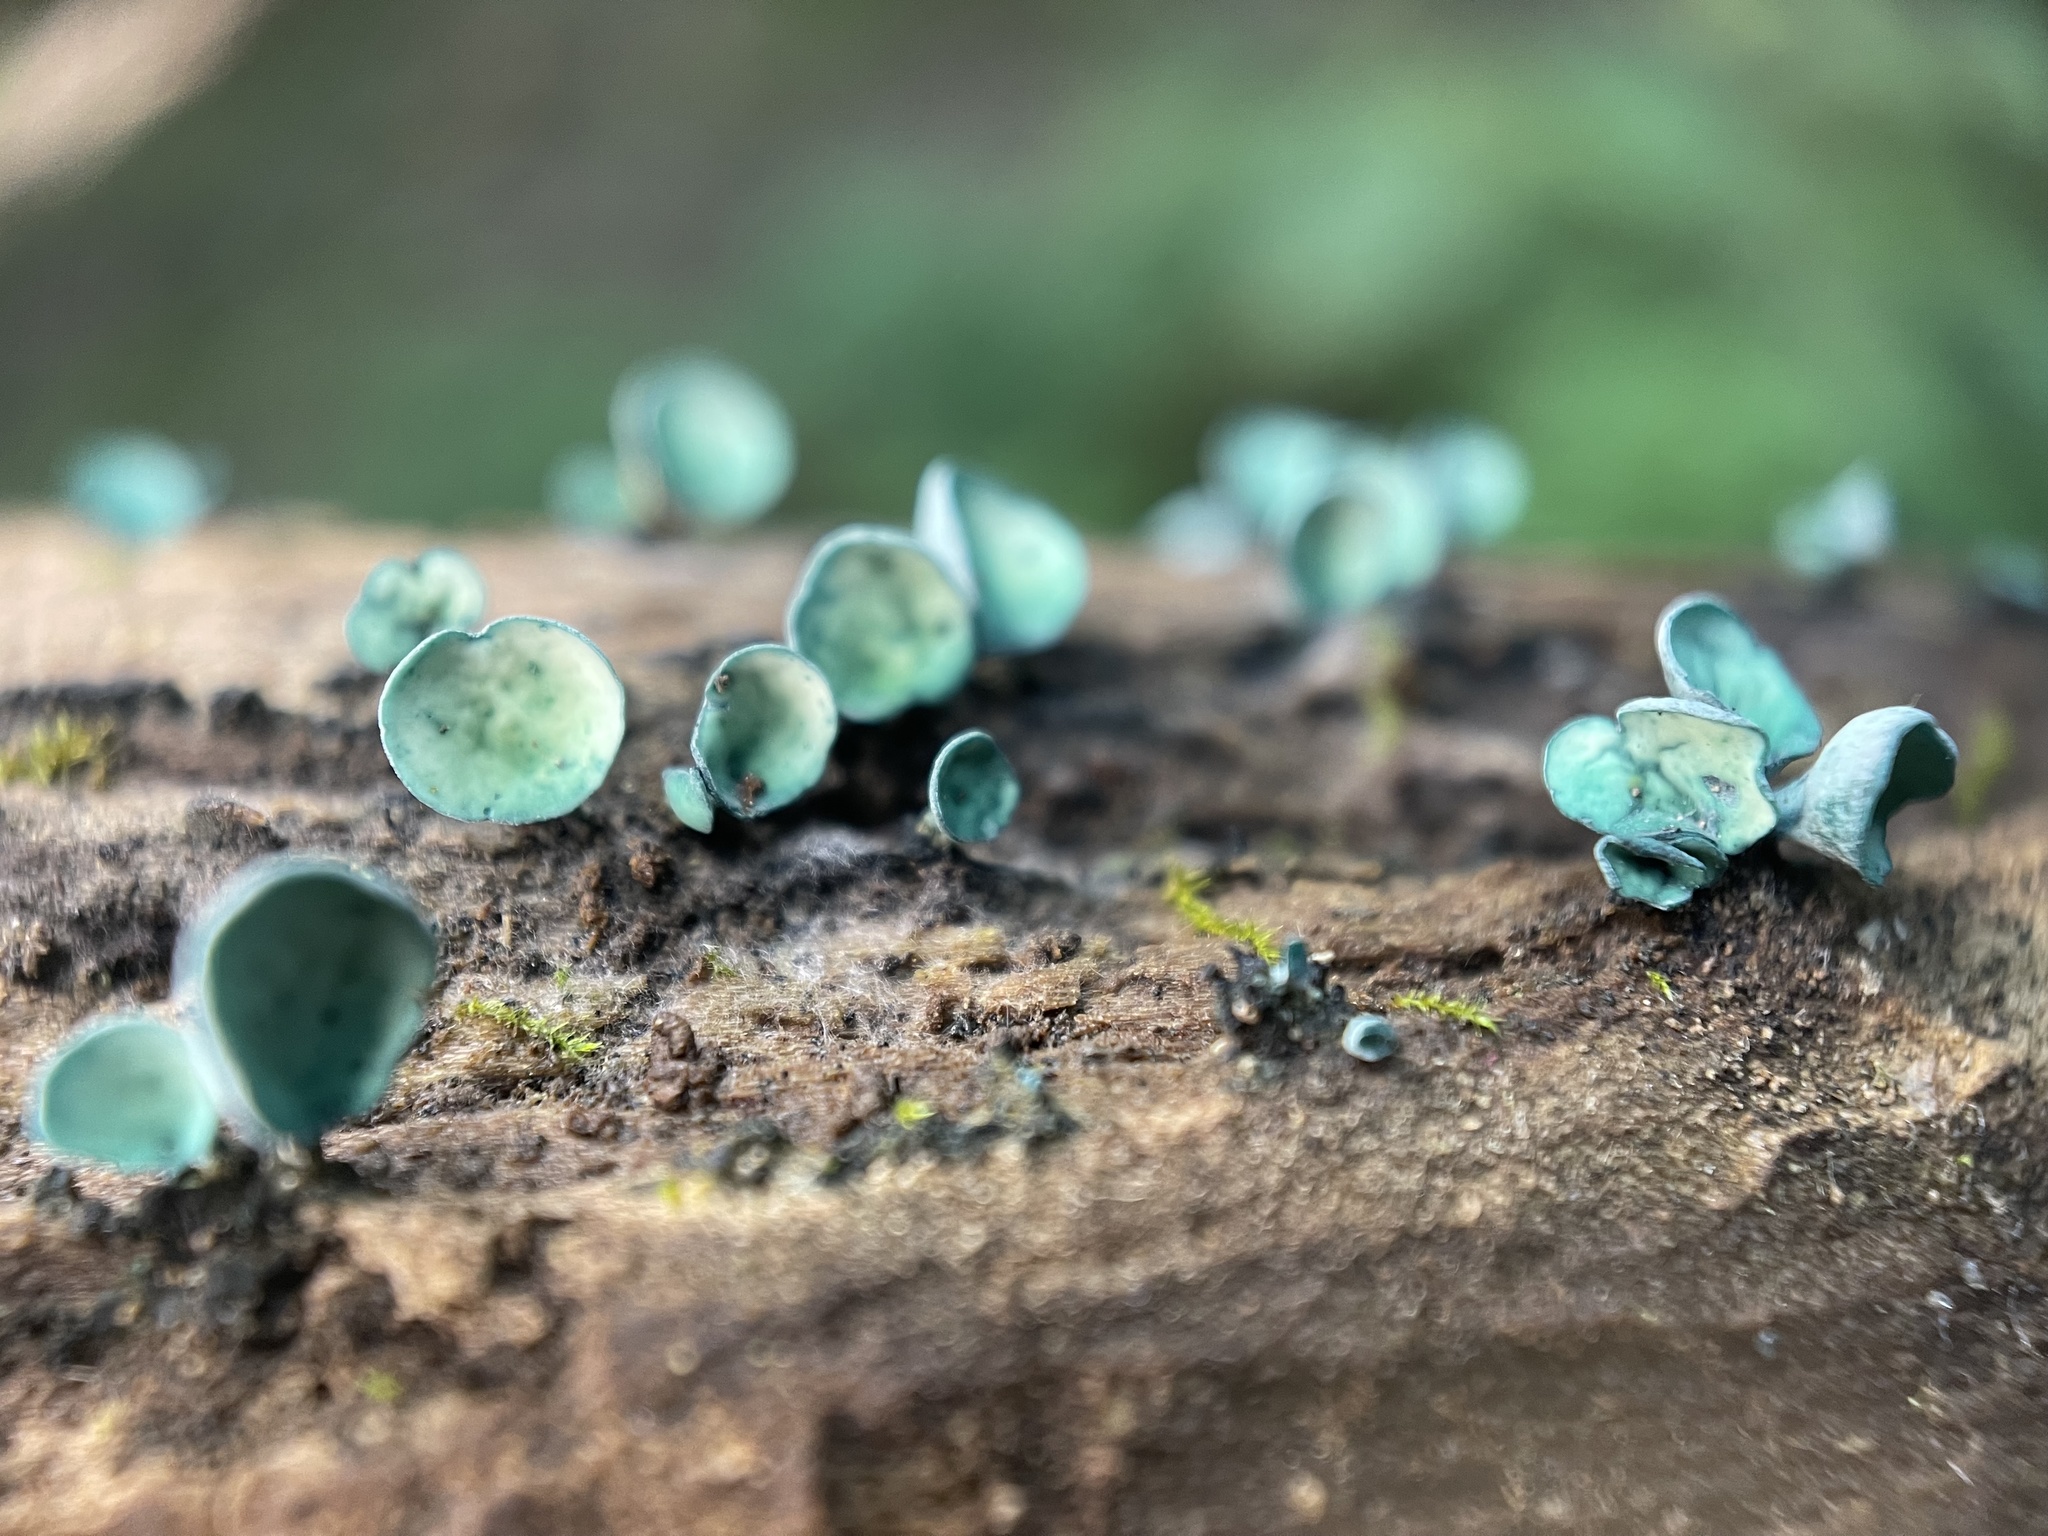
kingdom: Fungi
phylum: Ascomycota
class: Leotiomycetes
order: Helotiales
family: Chlorociboriaceae
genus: Chlorociboria
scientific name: Chlorociboria aeruginascens
